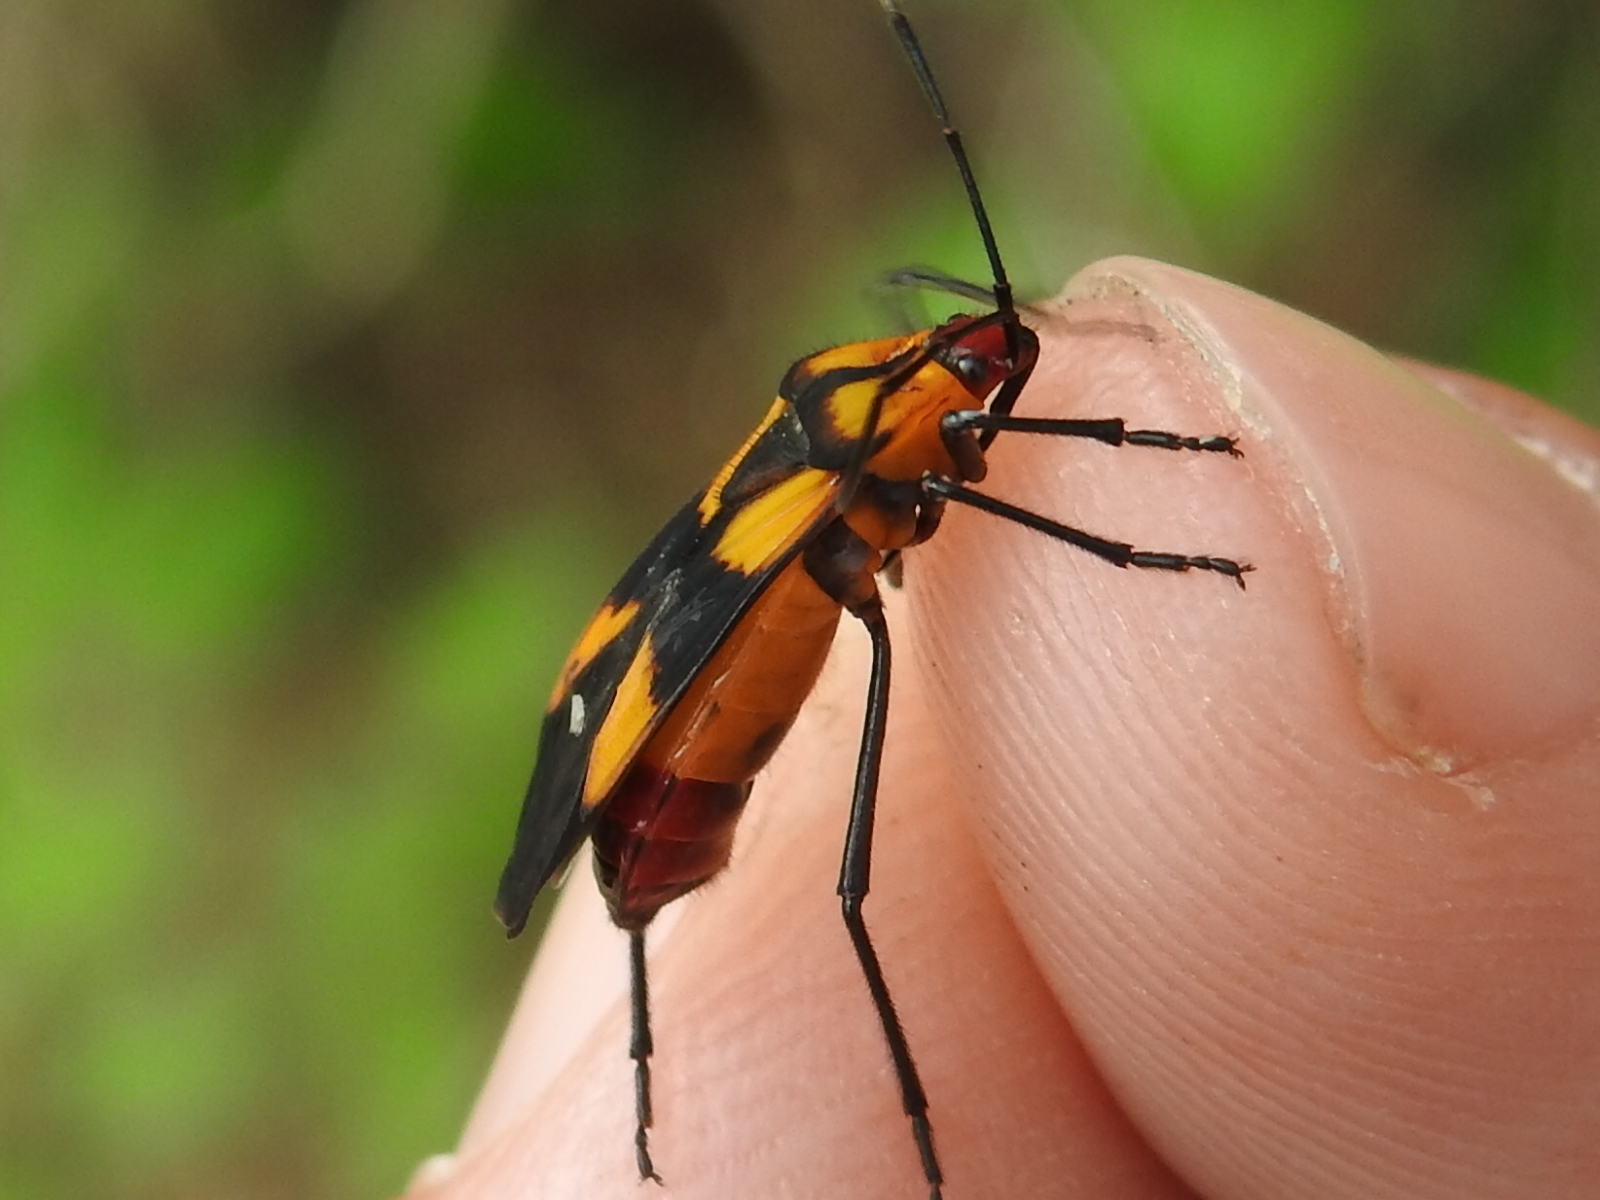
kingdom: Animalia
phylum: Arthropoda
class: Insecta
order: Hemiptera
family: Lygaeidae
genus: Oncopeltus
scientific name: Oncopeltus sexmaculatus
